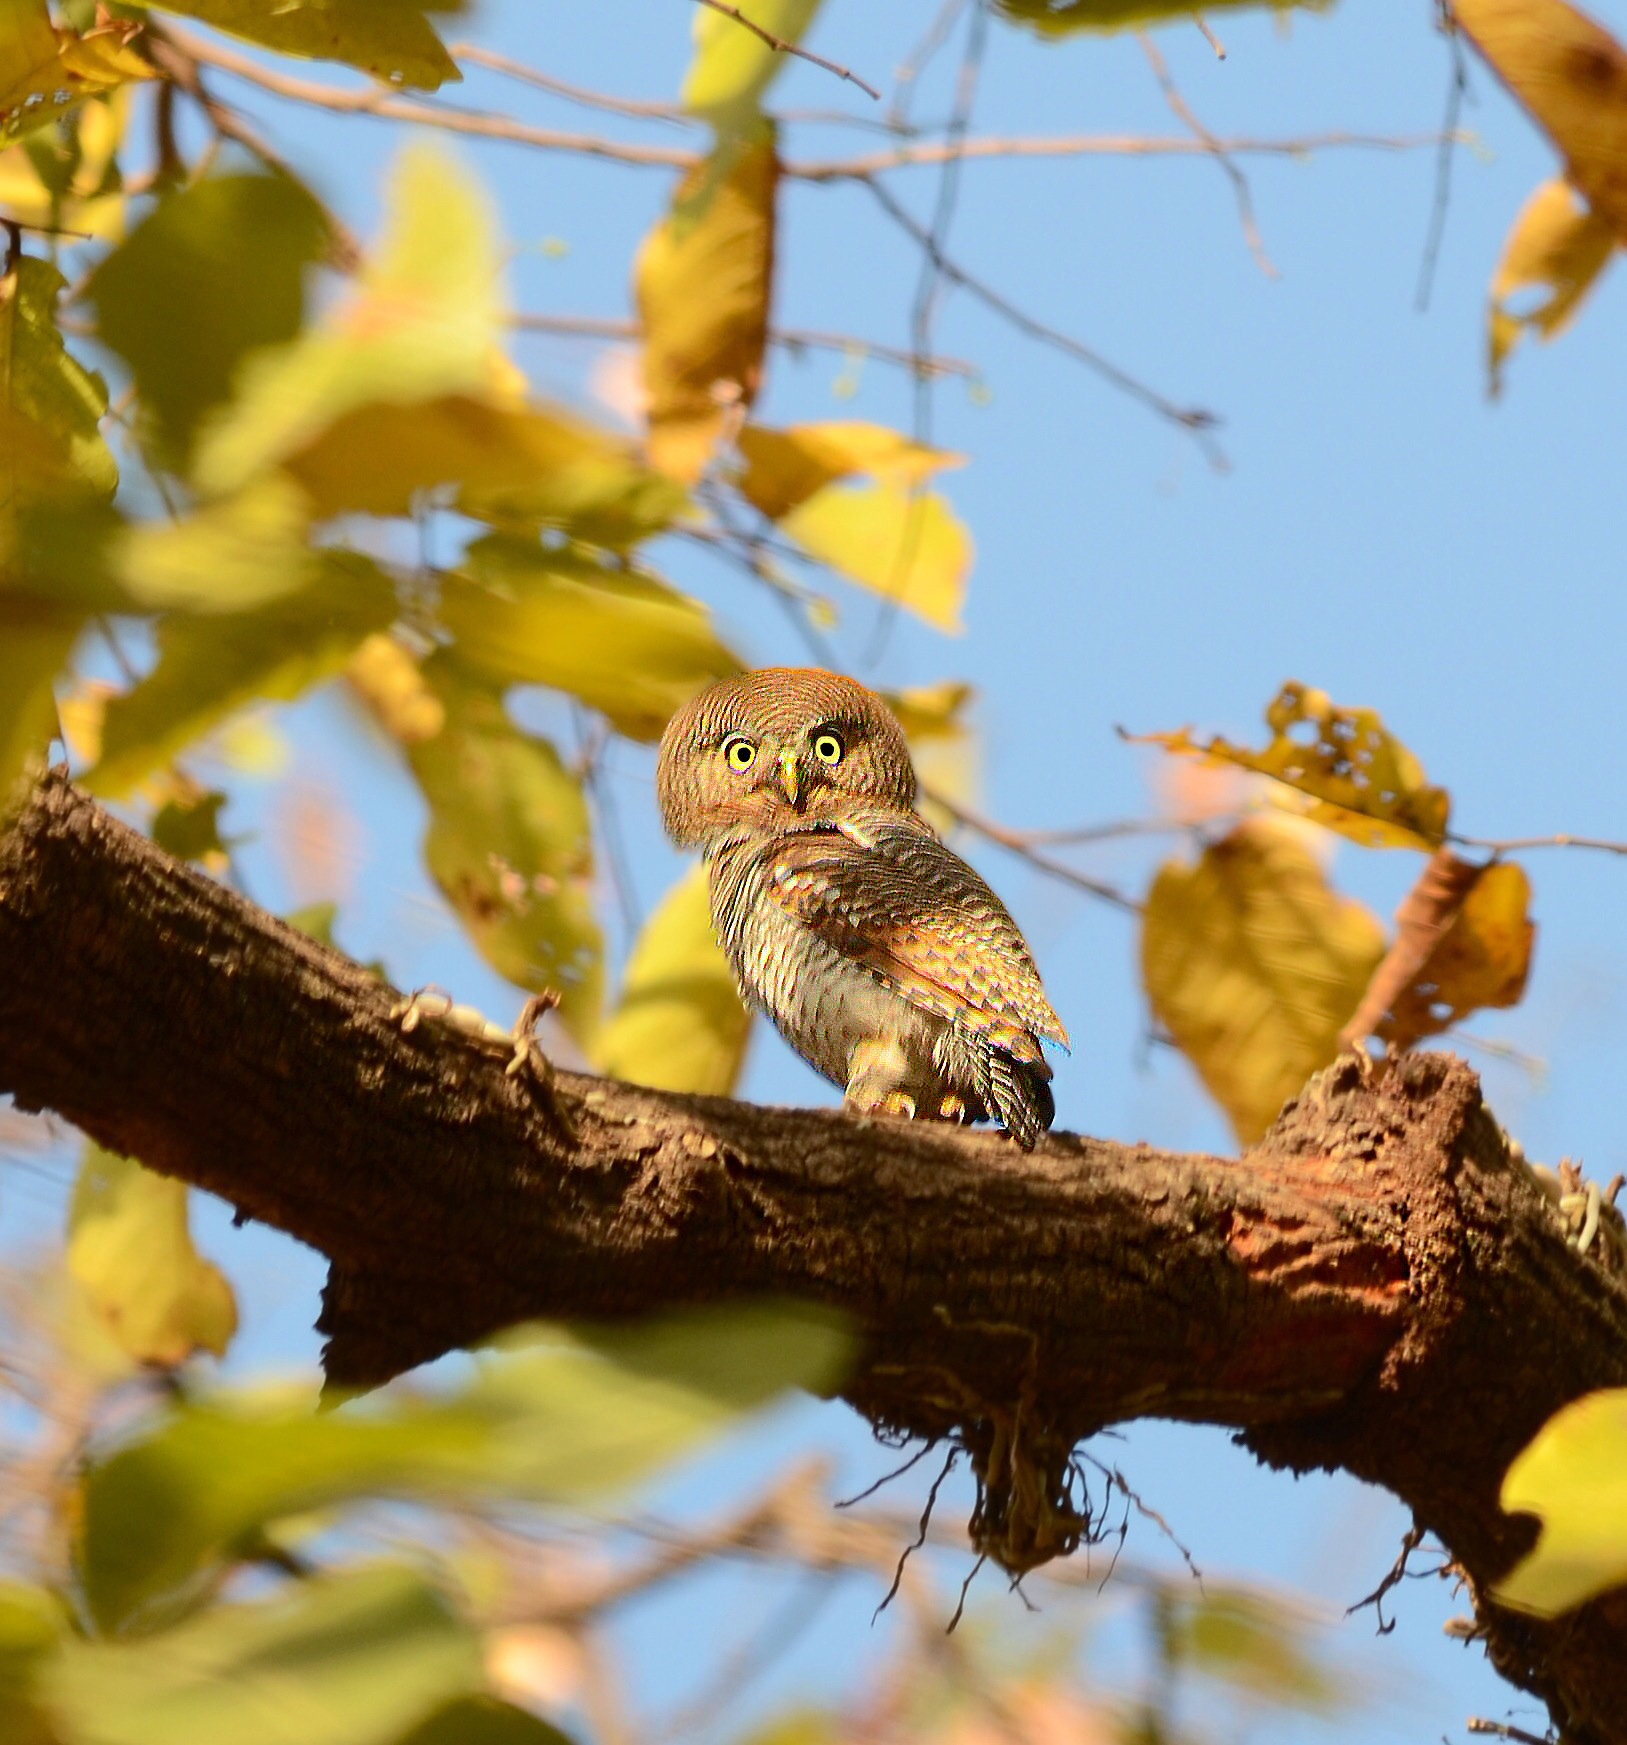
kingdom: Animalia
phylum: Chordata
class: Aves
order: Strigiformes
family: Strigidae
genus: Glaucidium
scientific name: Glaucidium radiatum
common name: Jungle owlet
